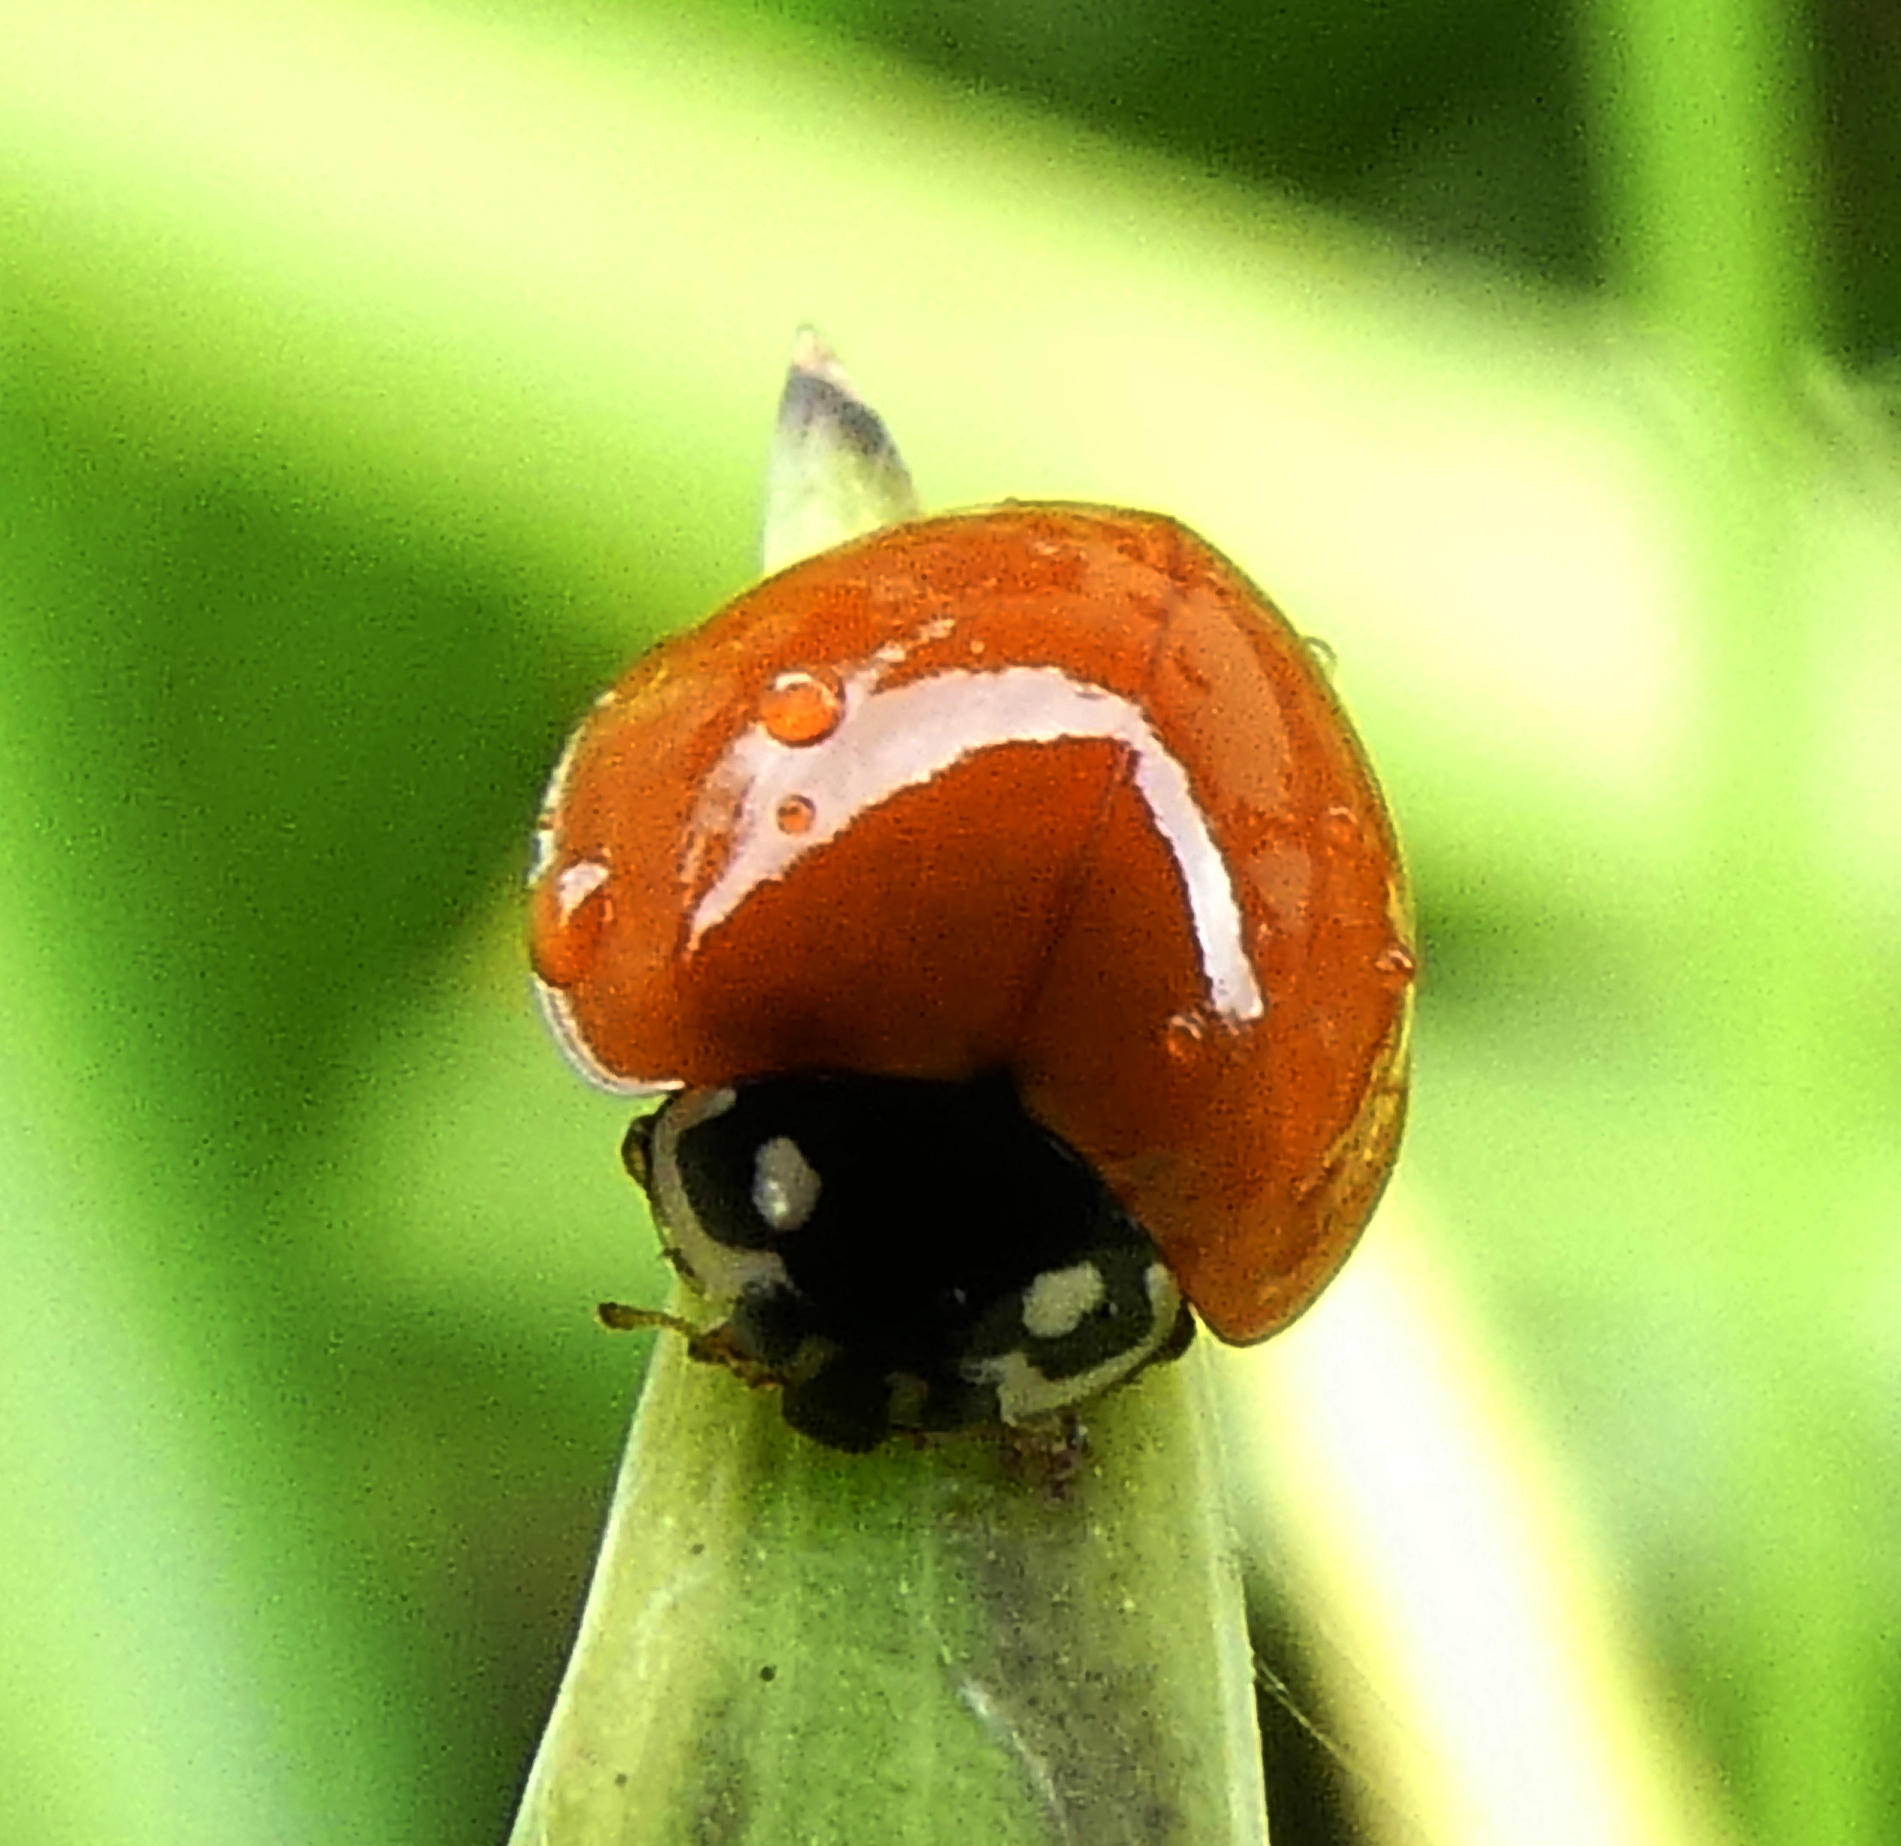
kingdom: Animalia
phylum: Arthropoda
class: Insecta
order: Coleoptera
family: Coccinellidae
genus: Cycloneda
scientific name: Cycloneda sanguinea
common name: Ladybird beetle
